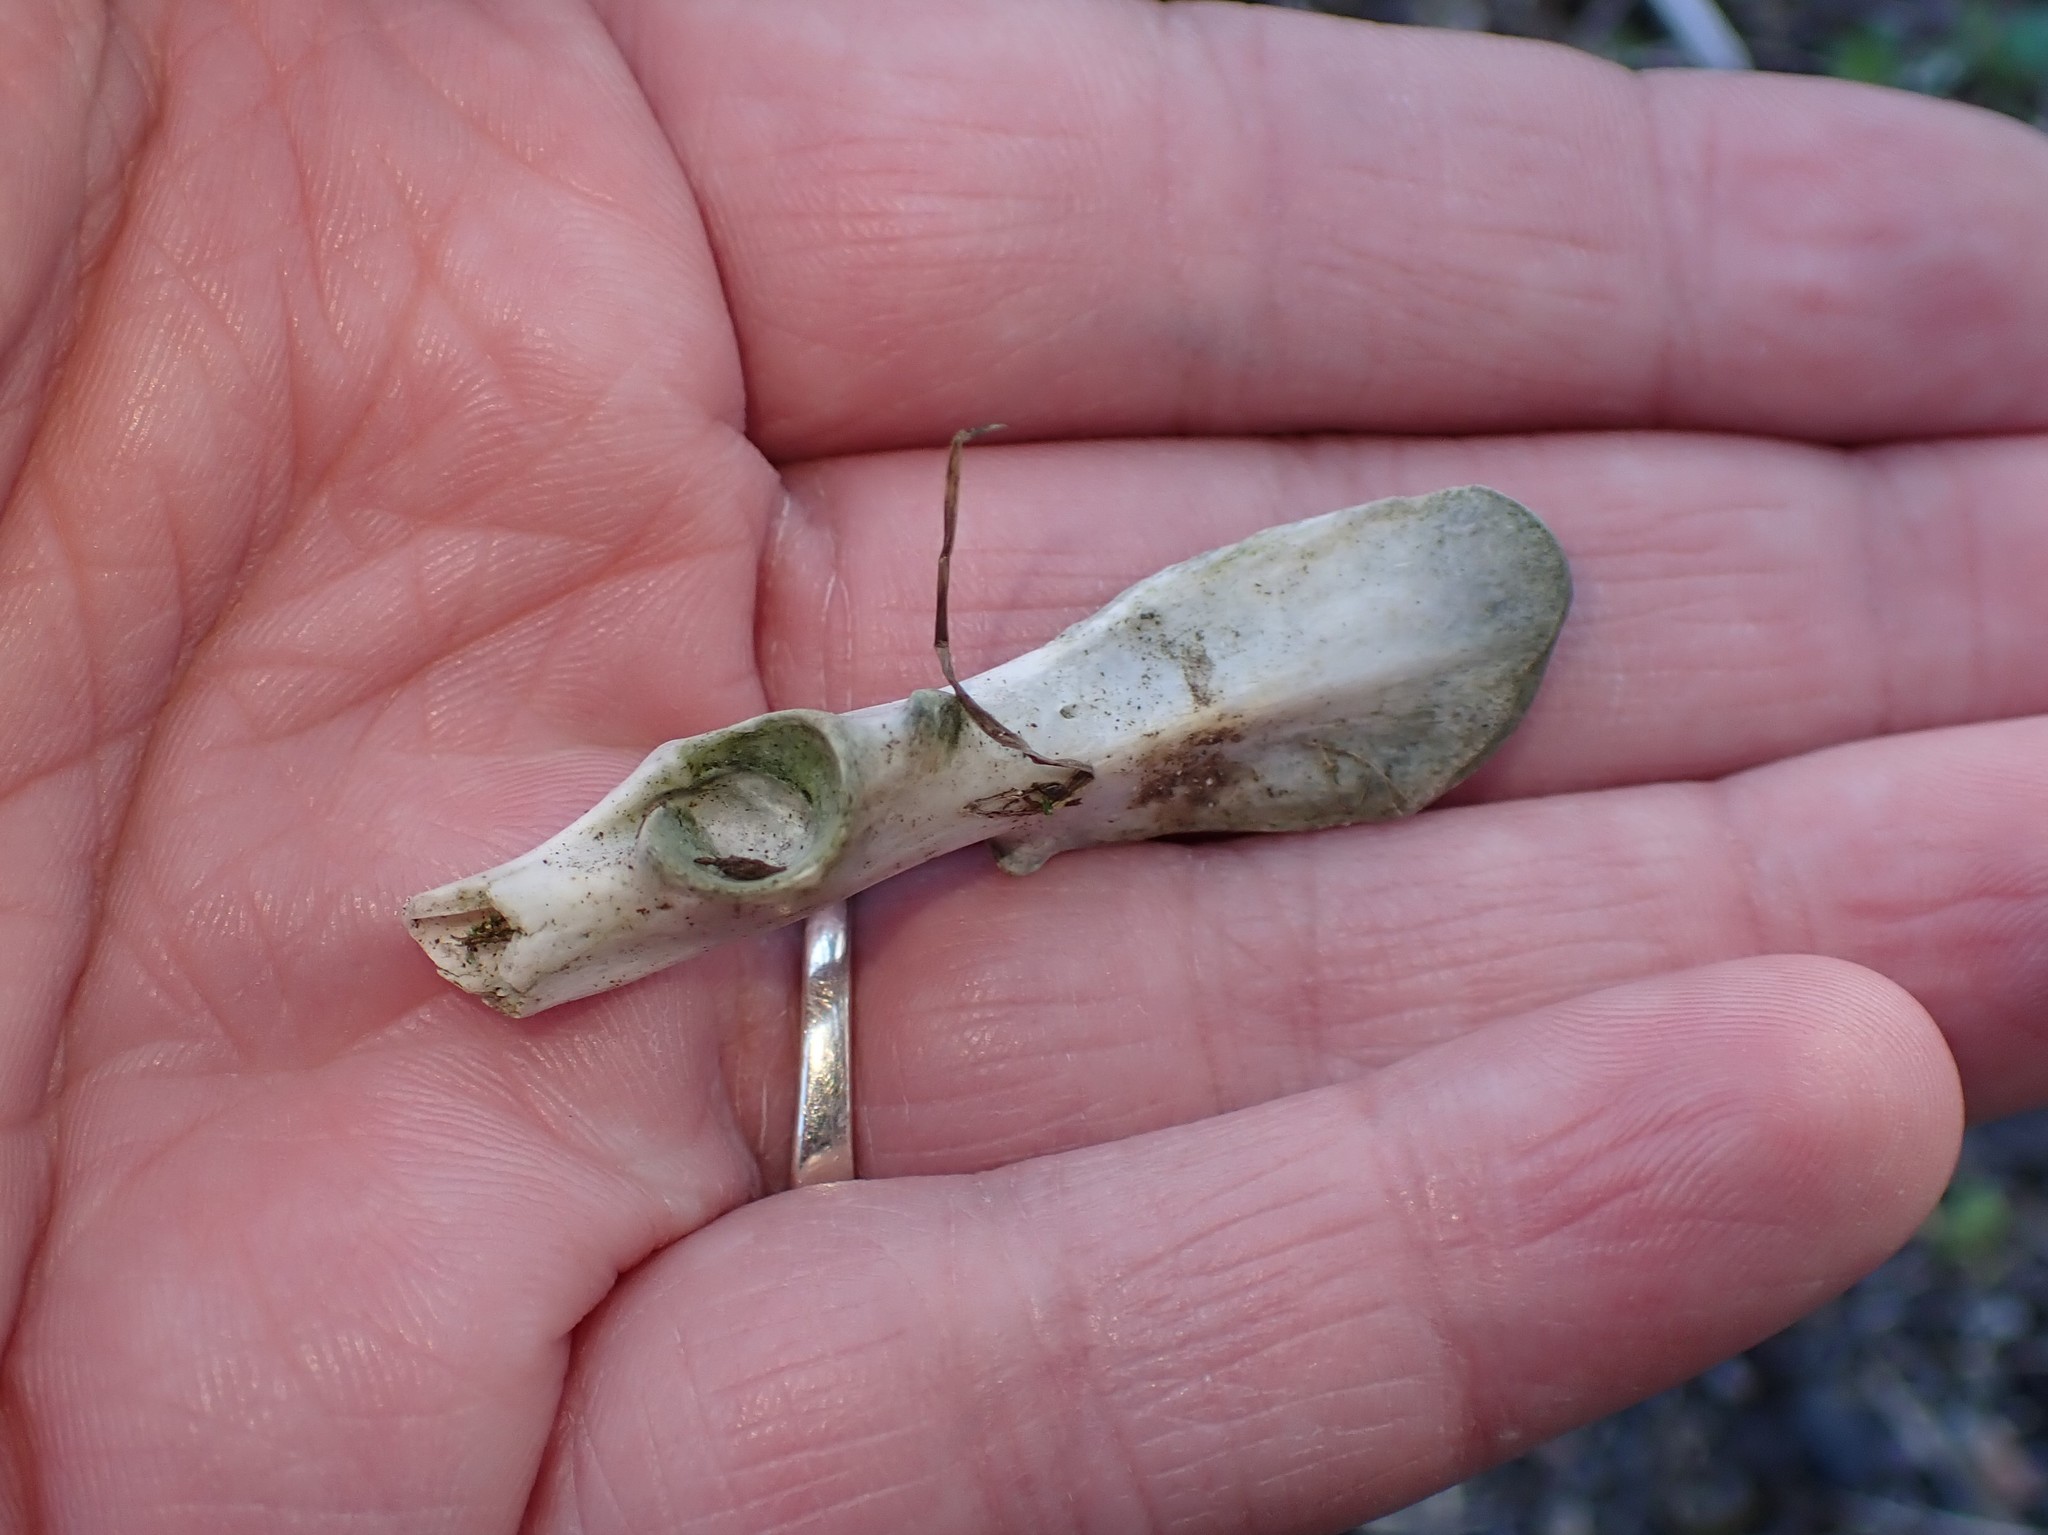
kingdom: Animalia
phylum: Chordata
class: Mammalia
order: Lagomorpha
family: Leporidae
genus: Sylvilagus
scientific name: Sylvilagus floridanus
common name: Eastern cottontail
